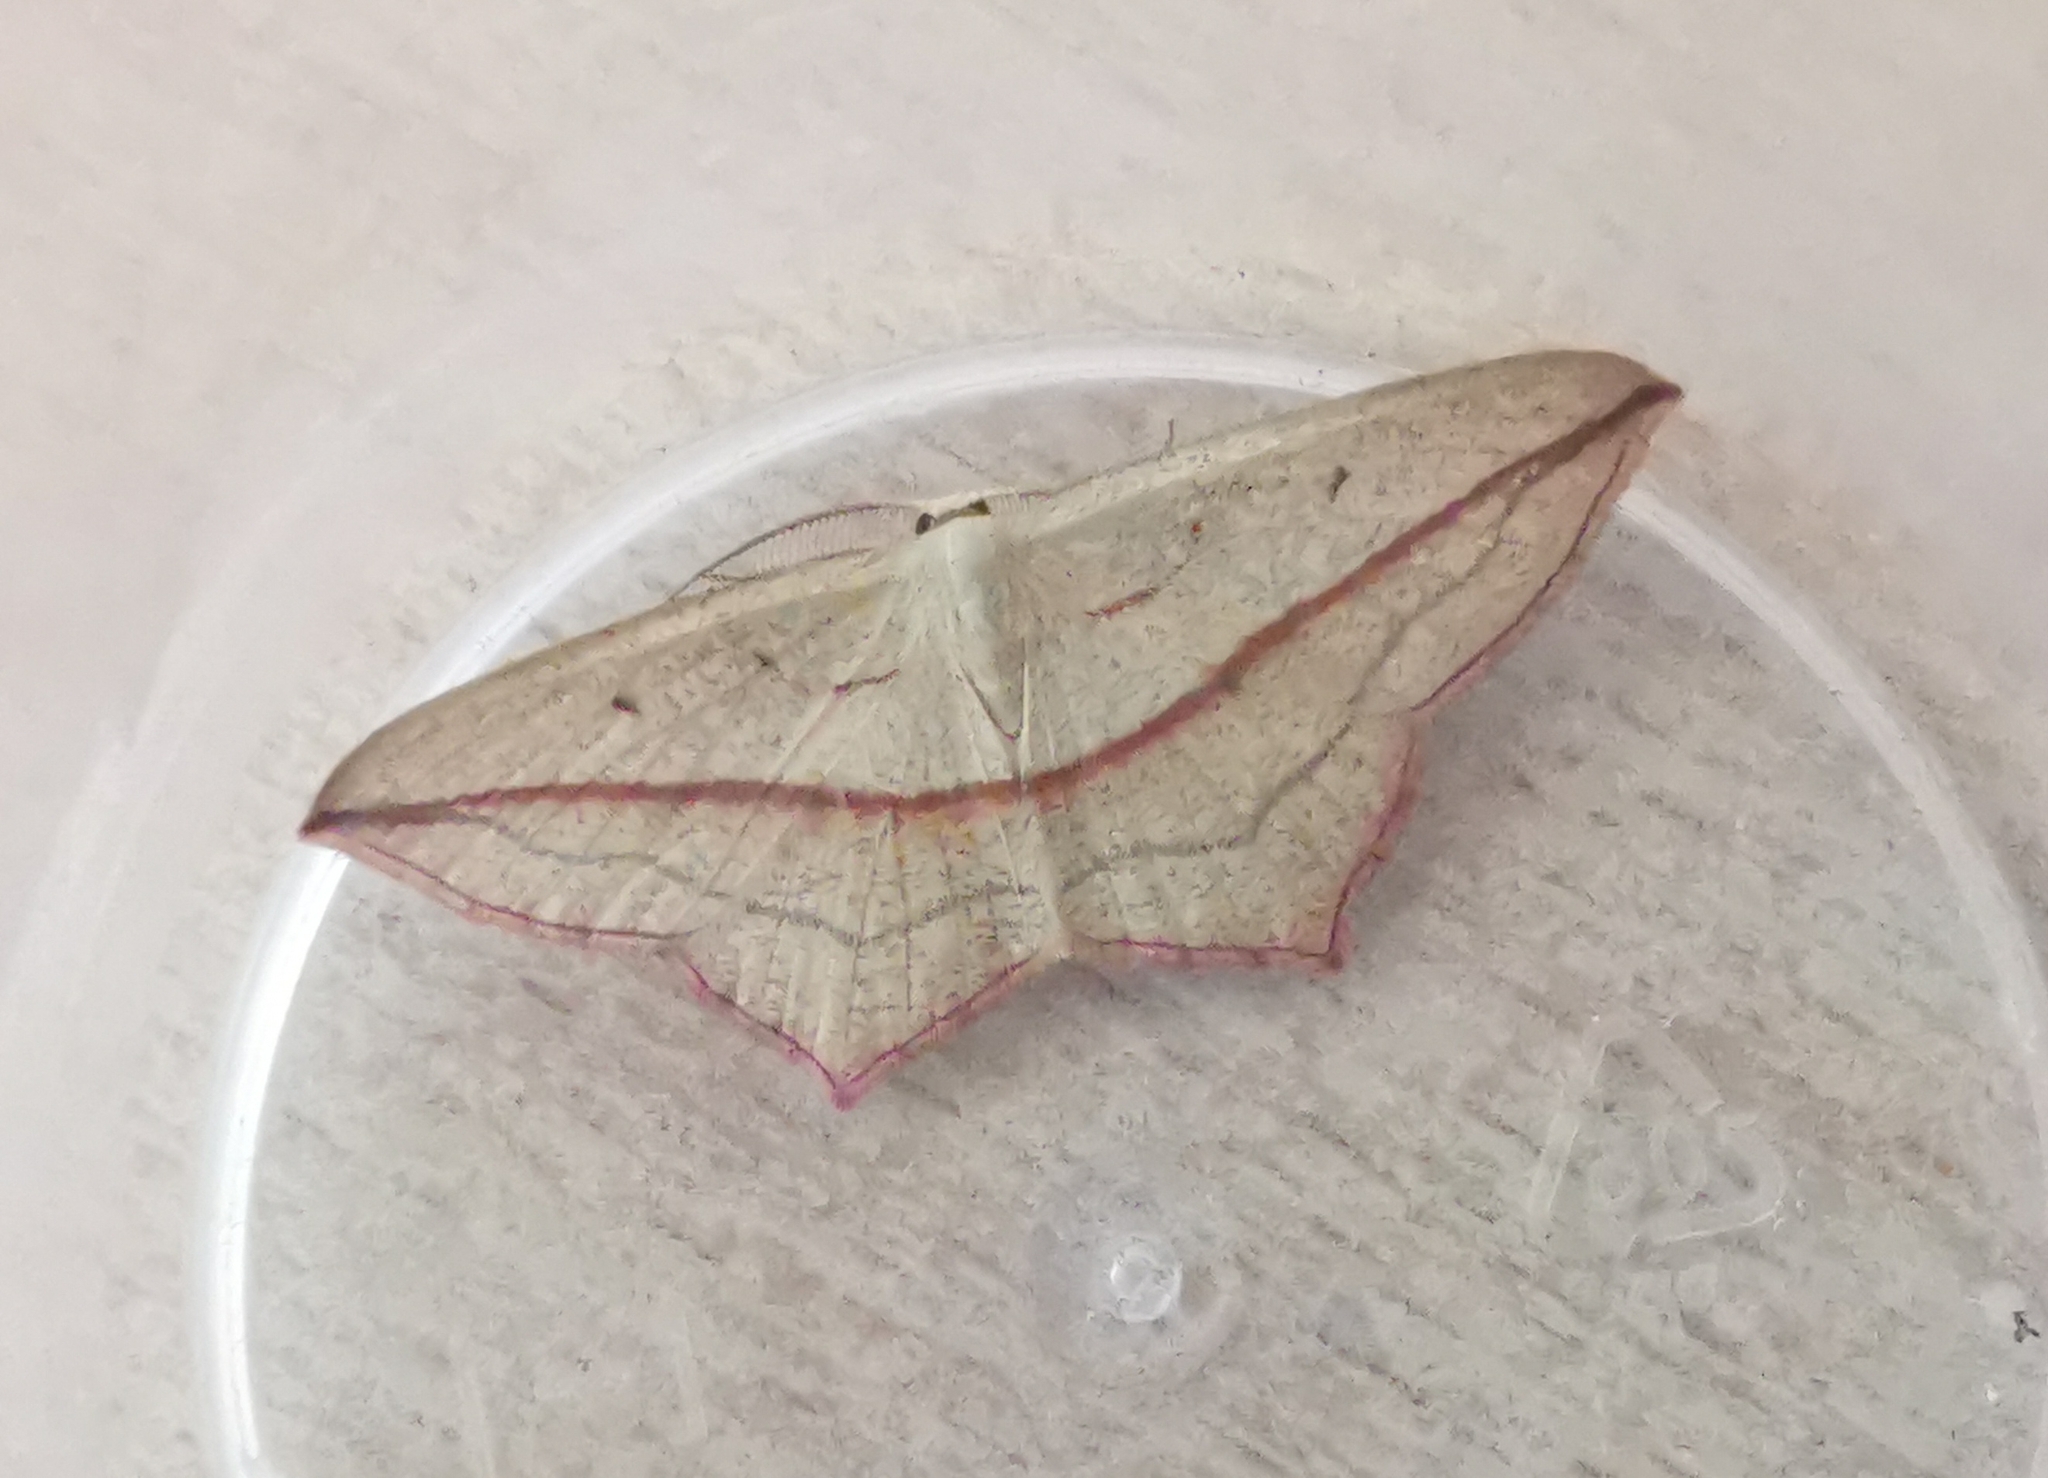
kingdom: Animalia
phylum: Arthropoda
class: Insecta
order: Lepidoptera
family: Geometridae
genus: Timandra
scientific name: Timandra comae
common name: Blood-vein
